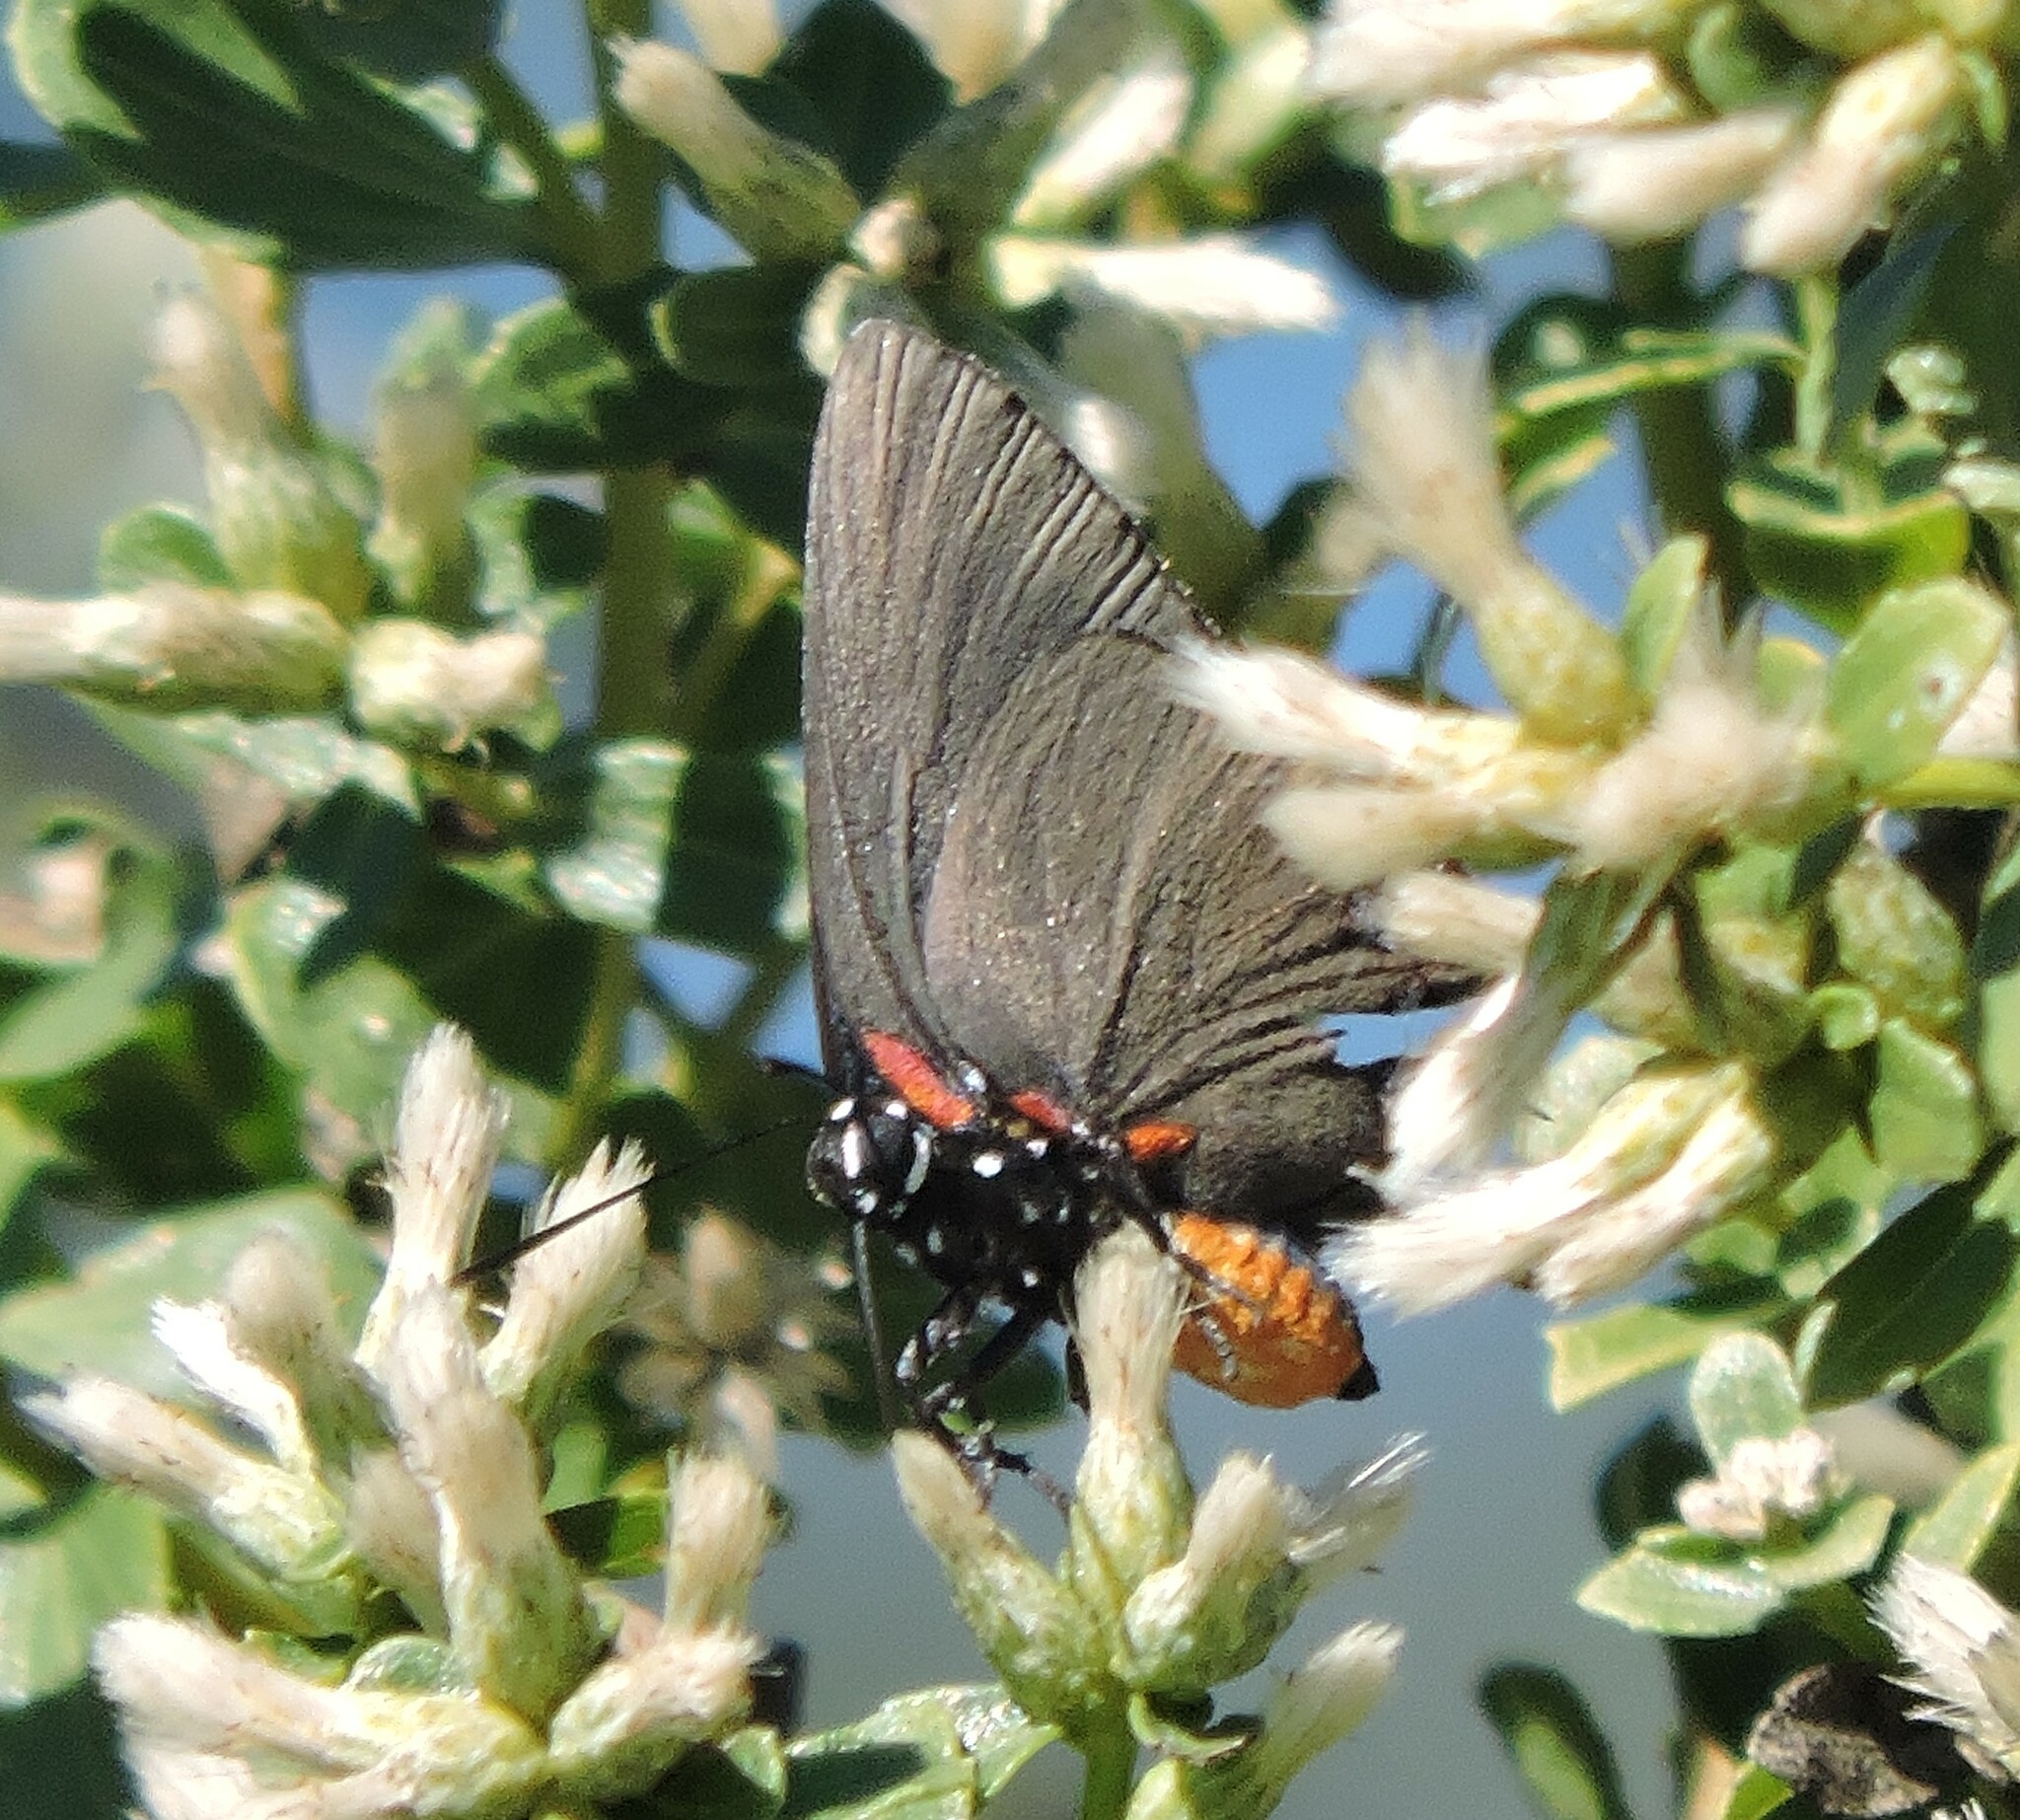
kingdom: Animalia
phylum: Arthropoda
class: Insecta
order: Lepidoptera
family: Lycaenidae
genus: Atlides
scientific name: Atlides halesus
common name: Great purple hairstreak
